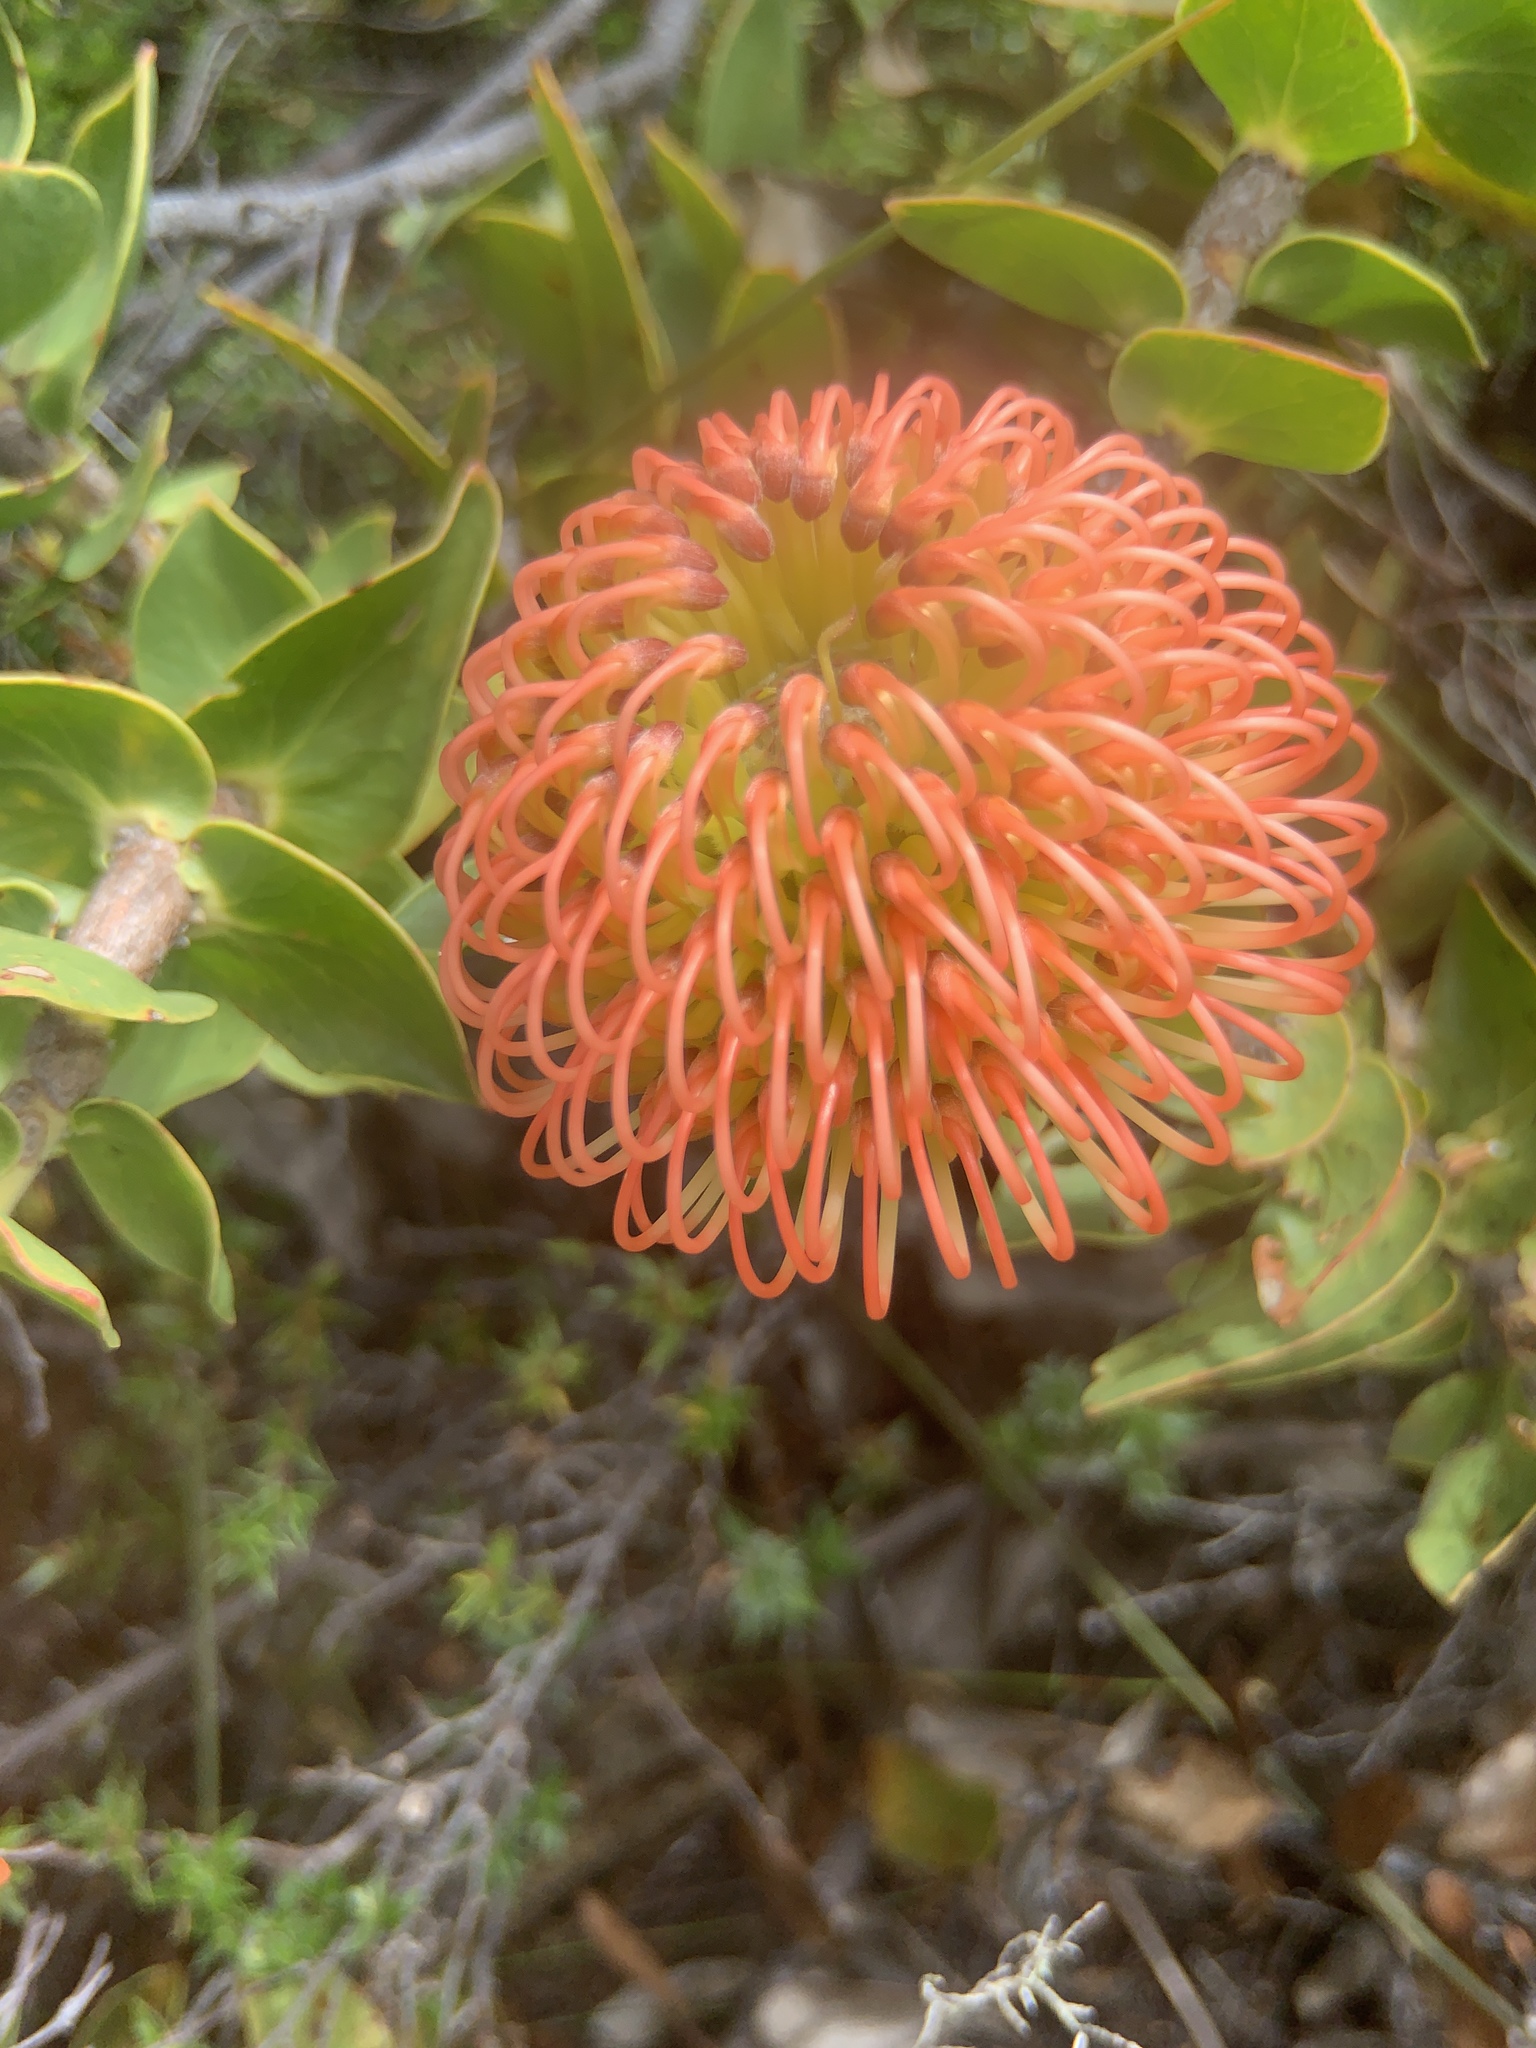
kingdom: Plantae
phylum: Tracheophyta
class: Magnoliopsida
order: Proteales
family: Proteaceae
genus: Leucospermum
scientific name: Leucospermum cordifolium
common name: Red pincushion-protea
